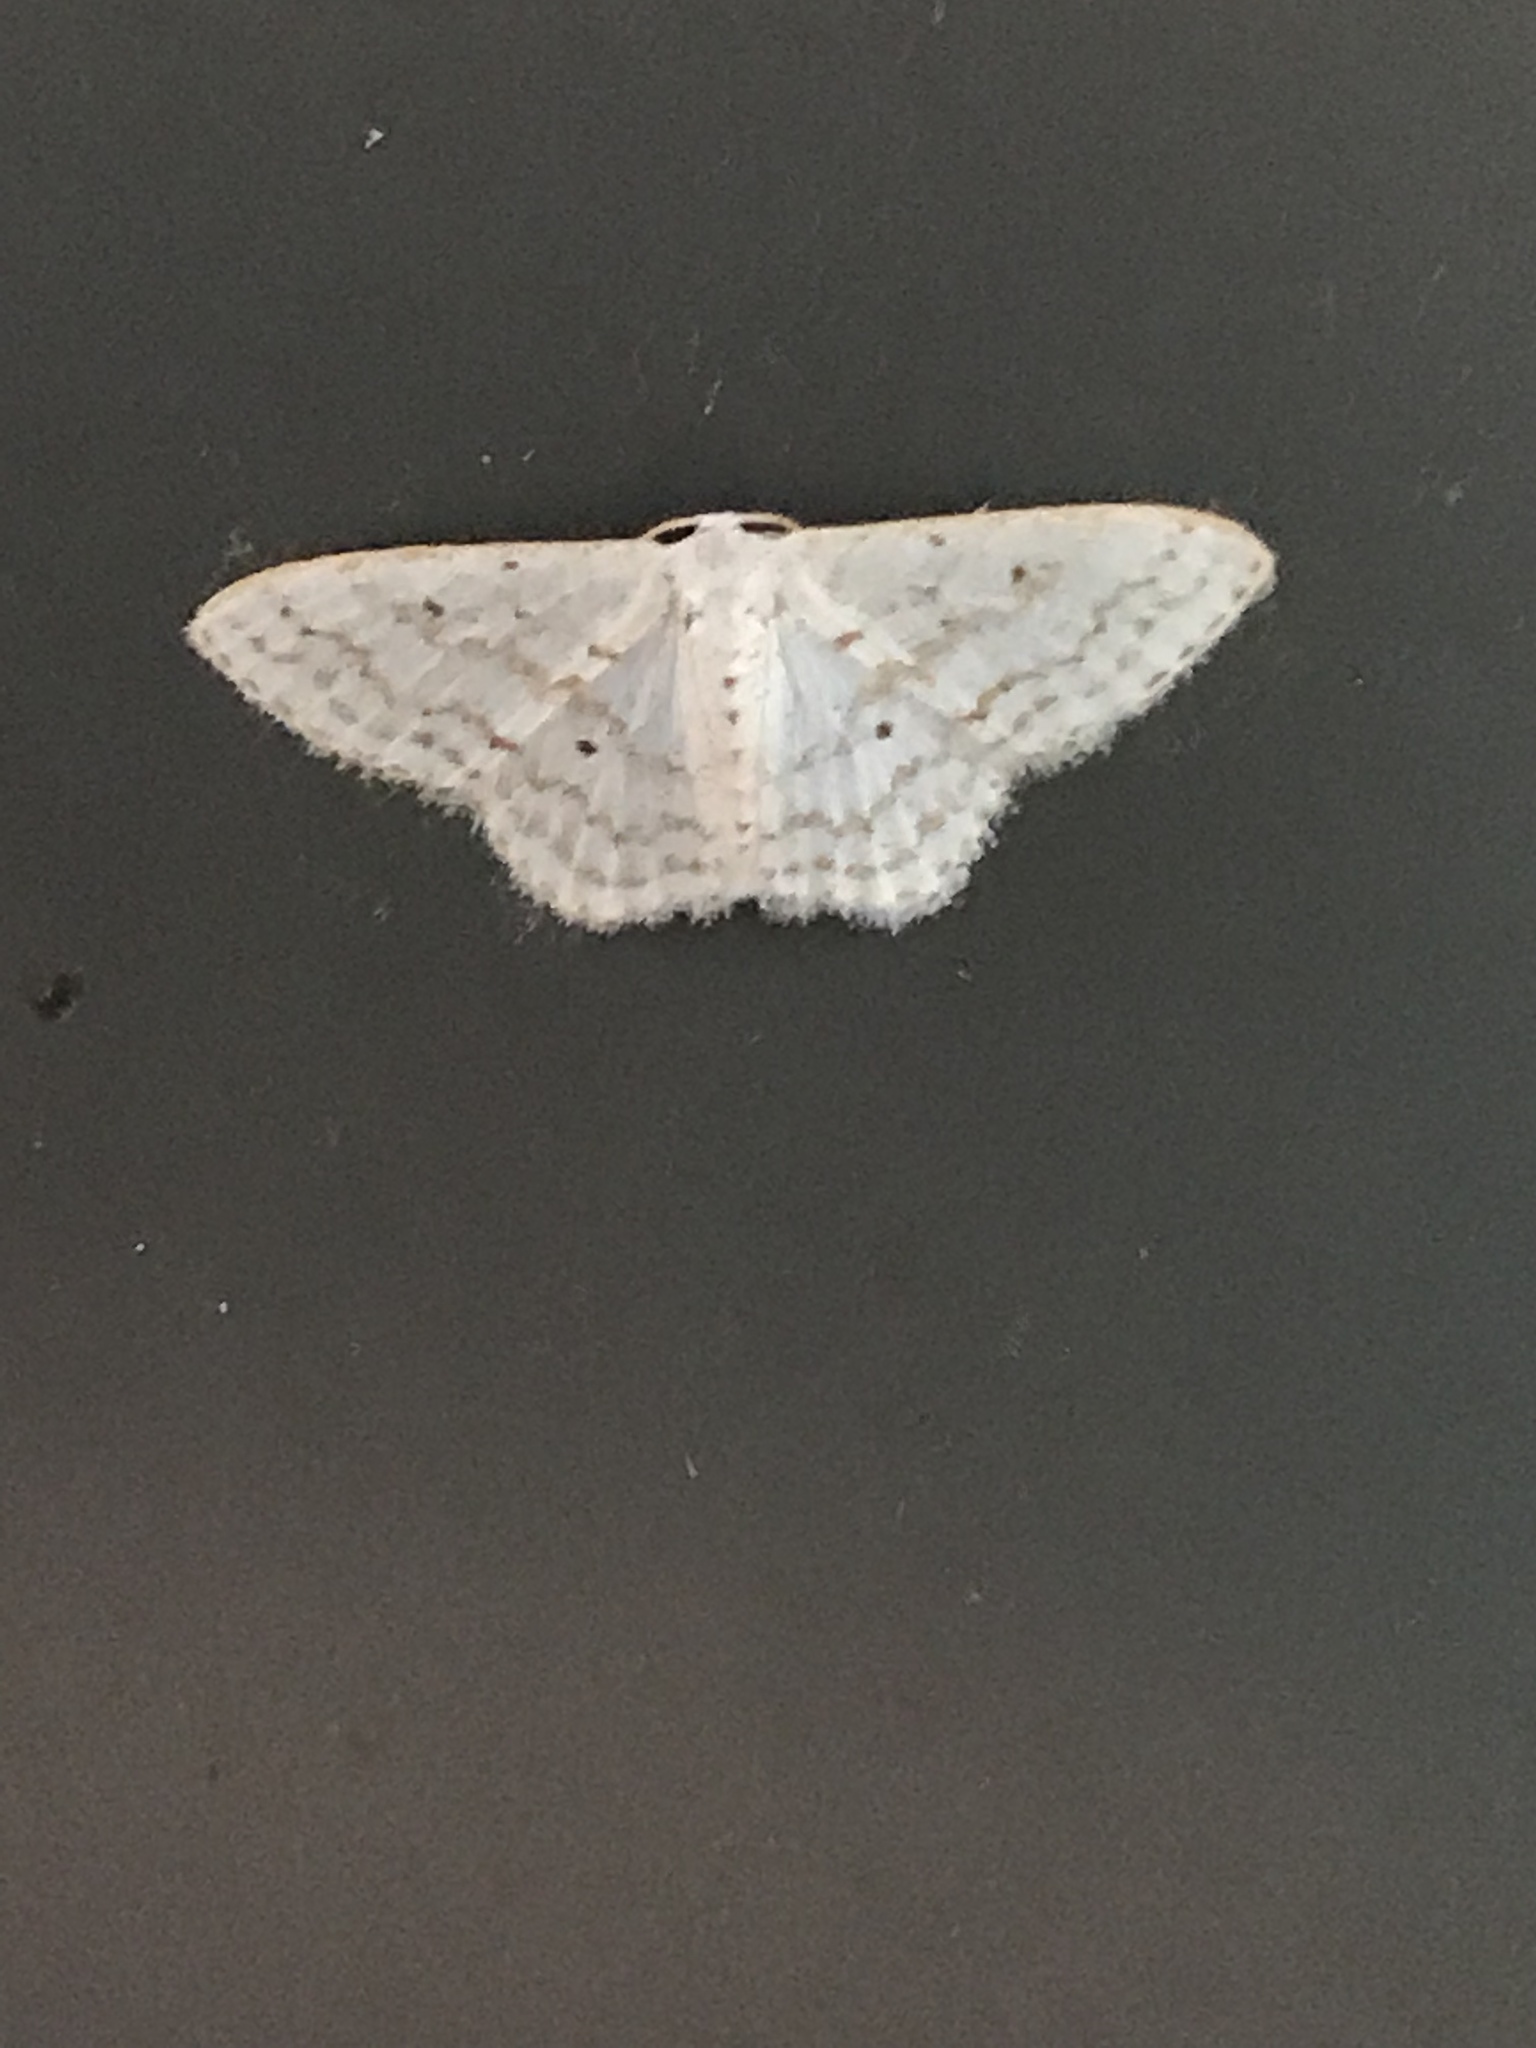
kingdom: Animalia
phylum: Arthropoda
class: Insecta
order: Lepidoptera
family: Geometridae
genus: Idaea
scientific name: Idaea tacturata
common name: Dot-lined wave
